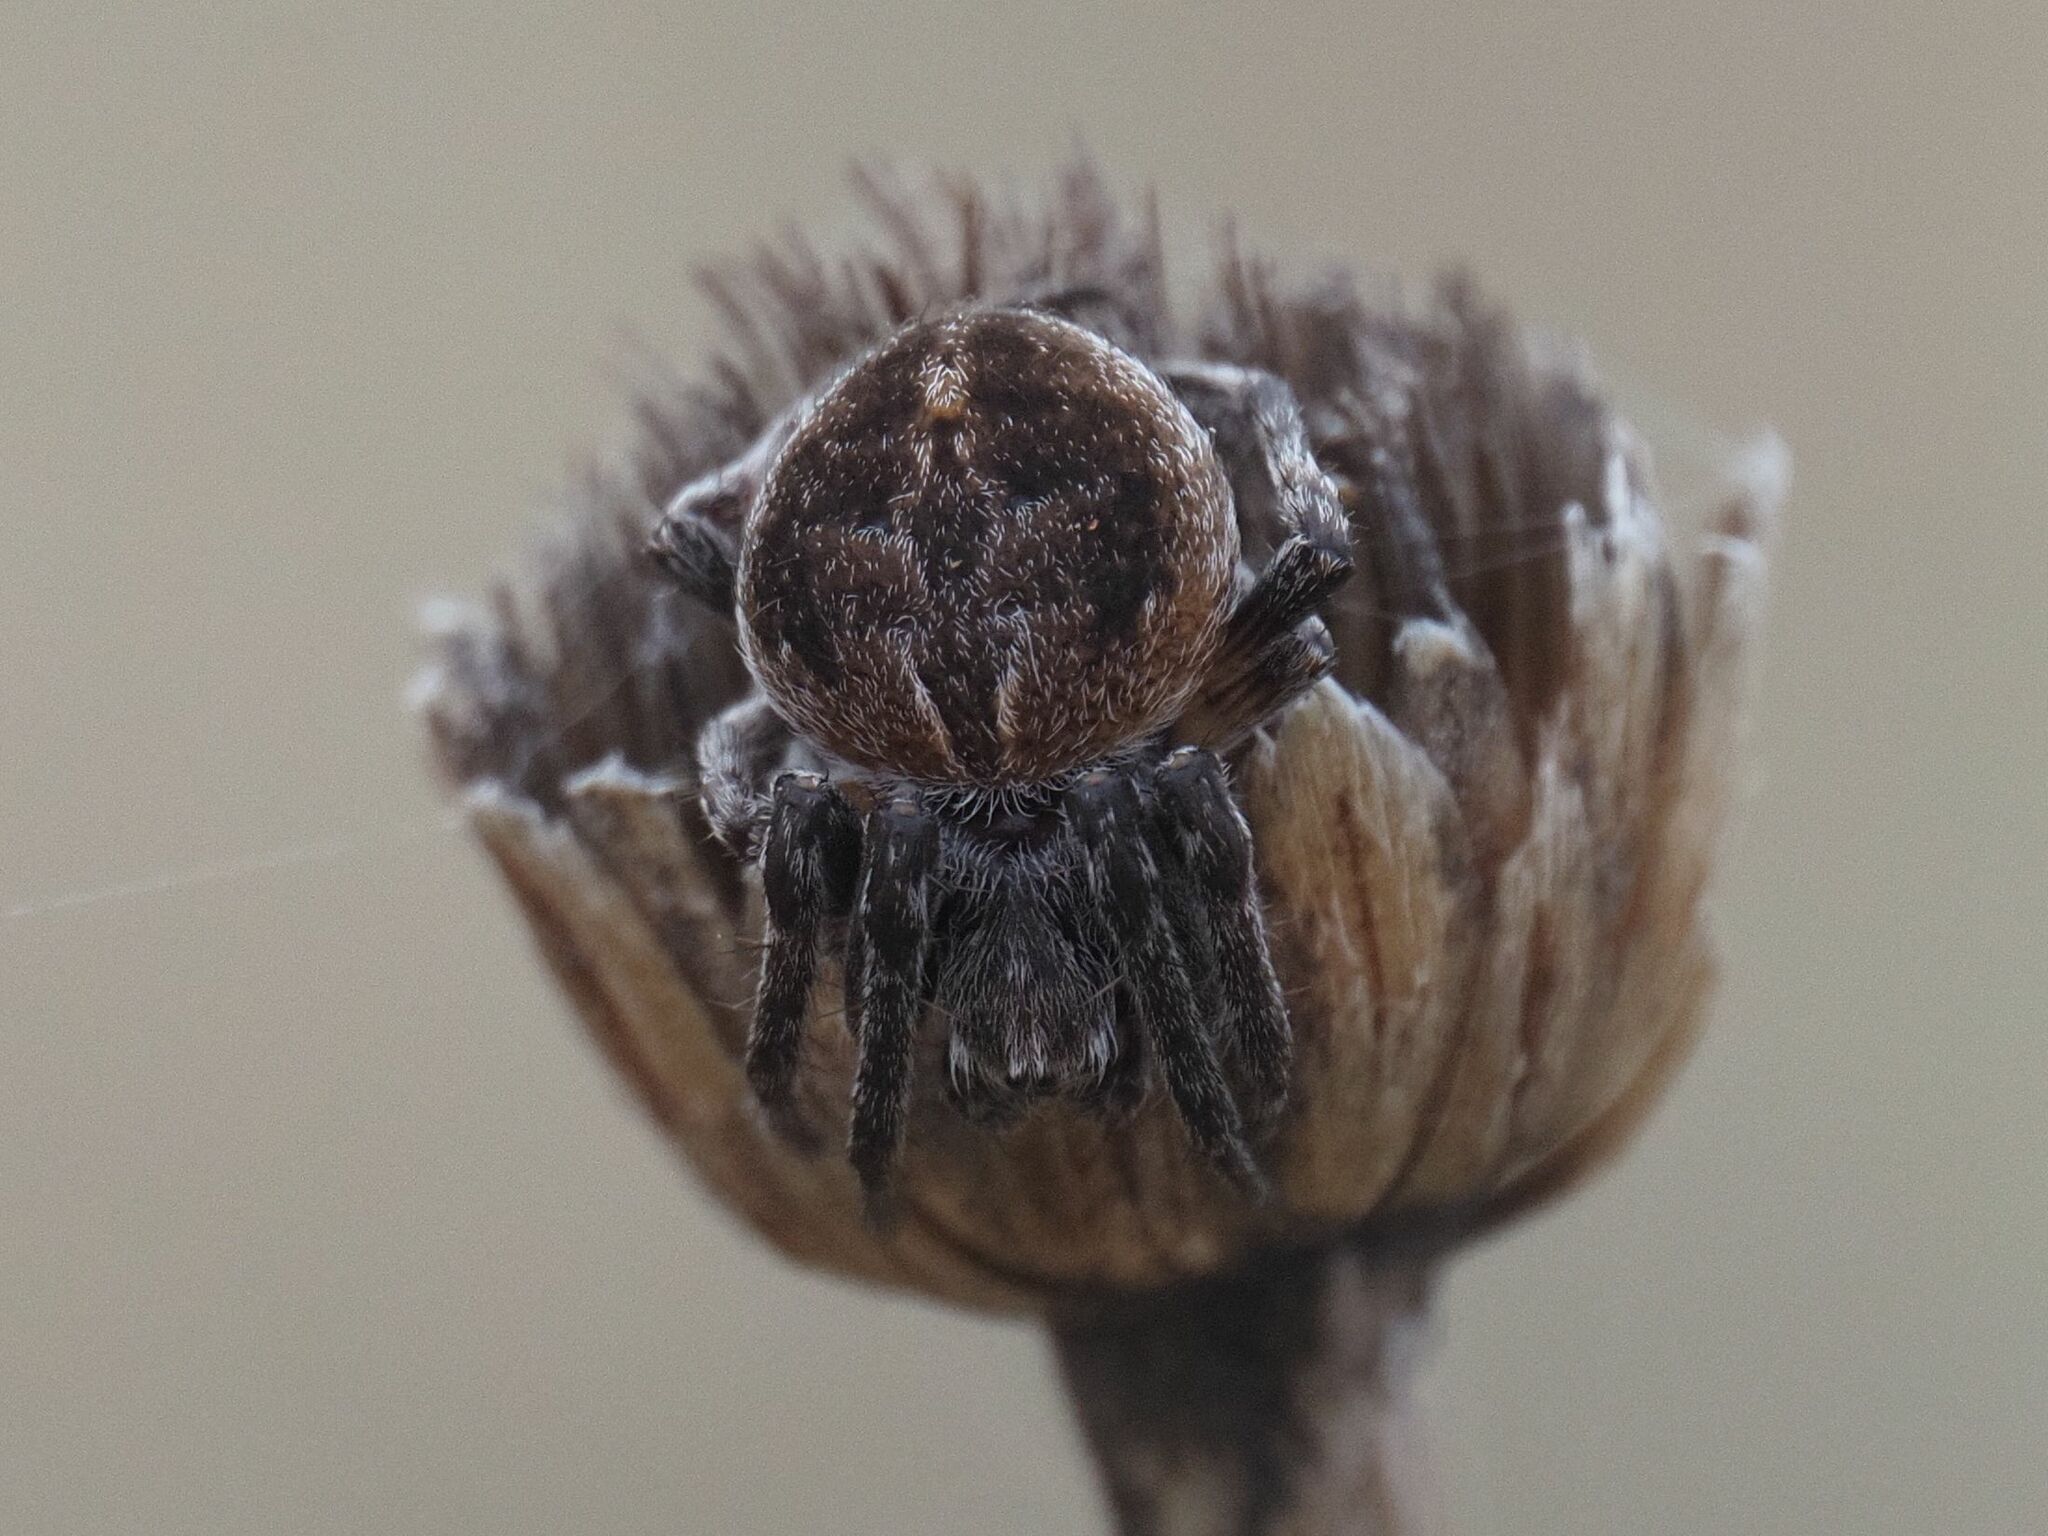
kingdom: Animalia
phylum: Arthropoda
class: Arachnida
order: Araneae
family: Araneidae
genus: Agalenatea
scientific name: Agalenatea redii
